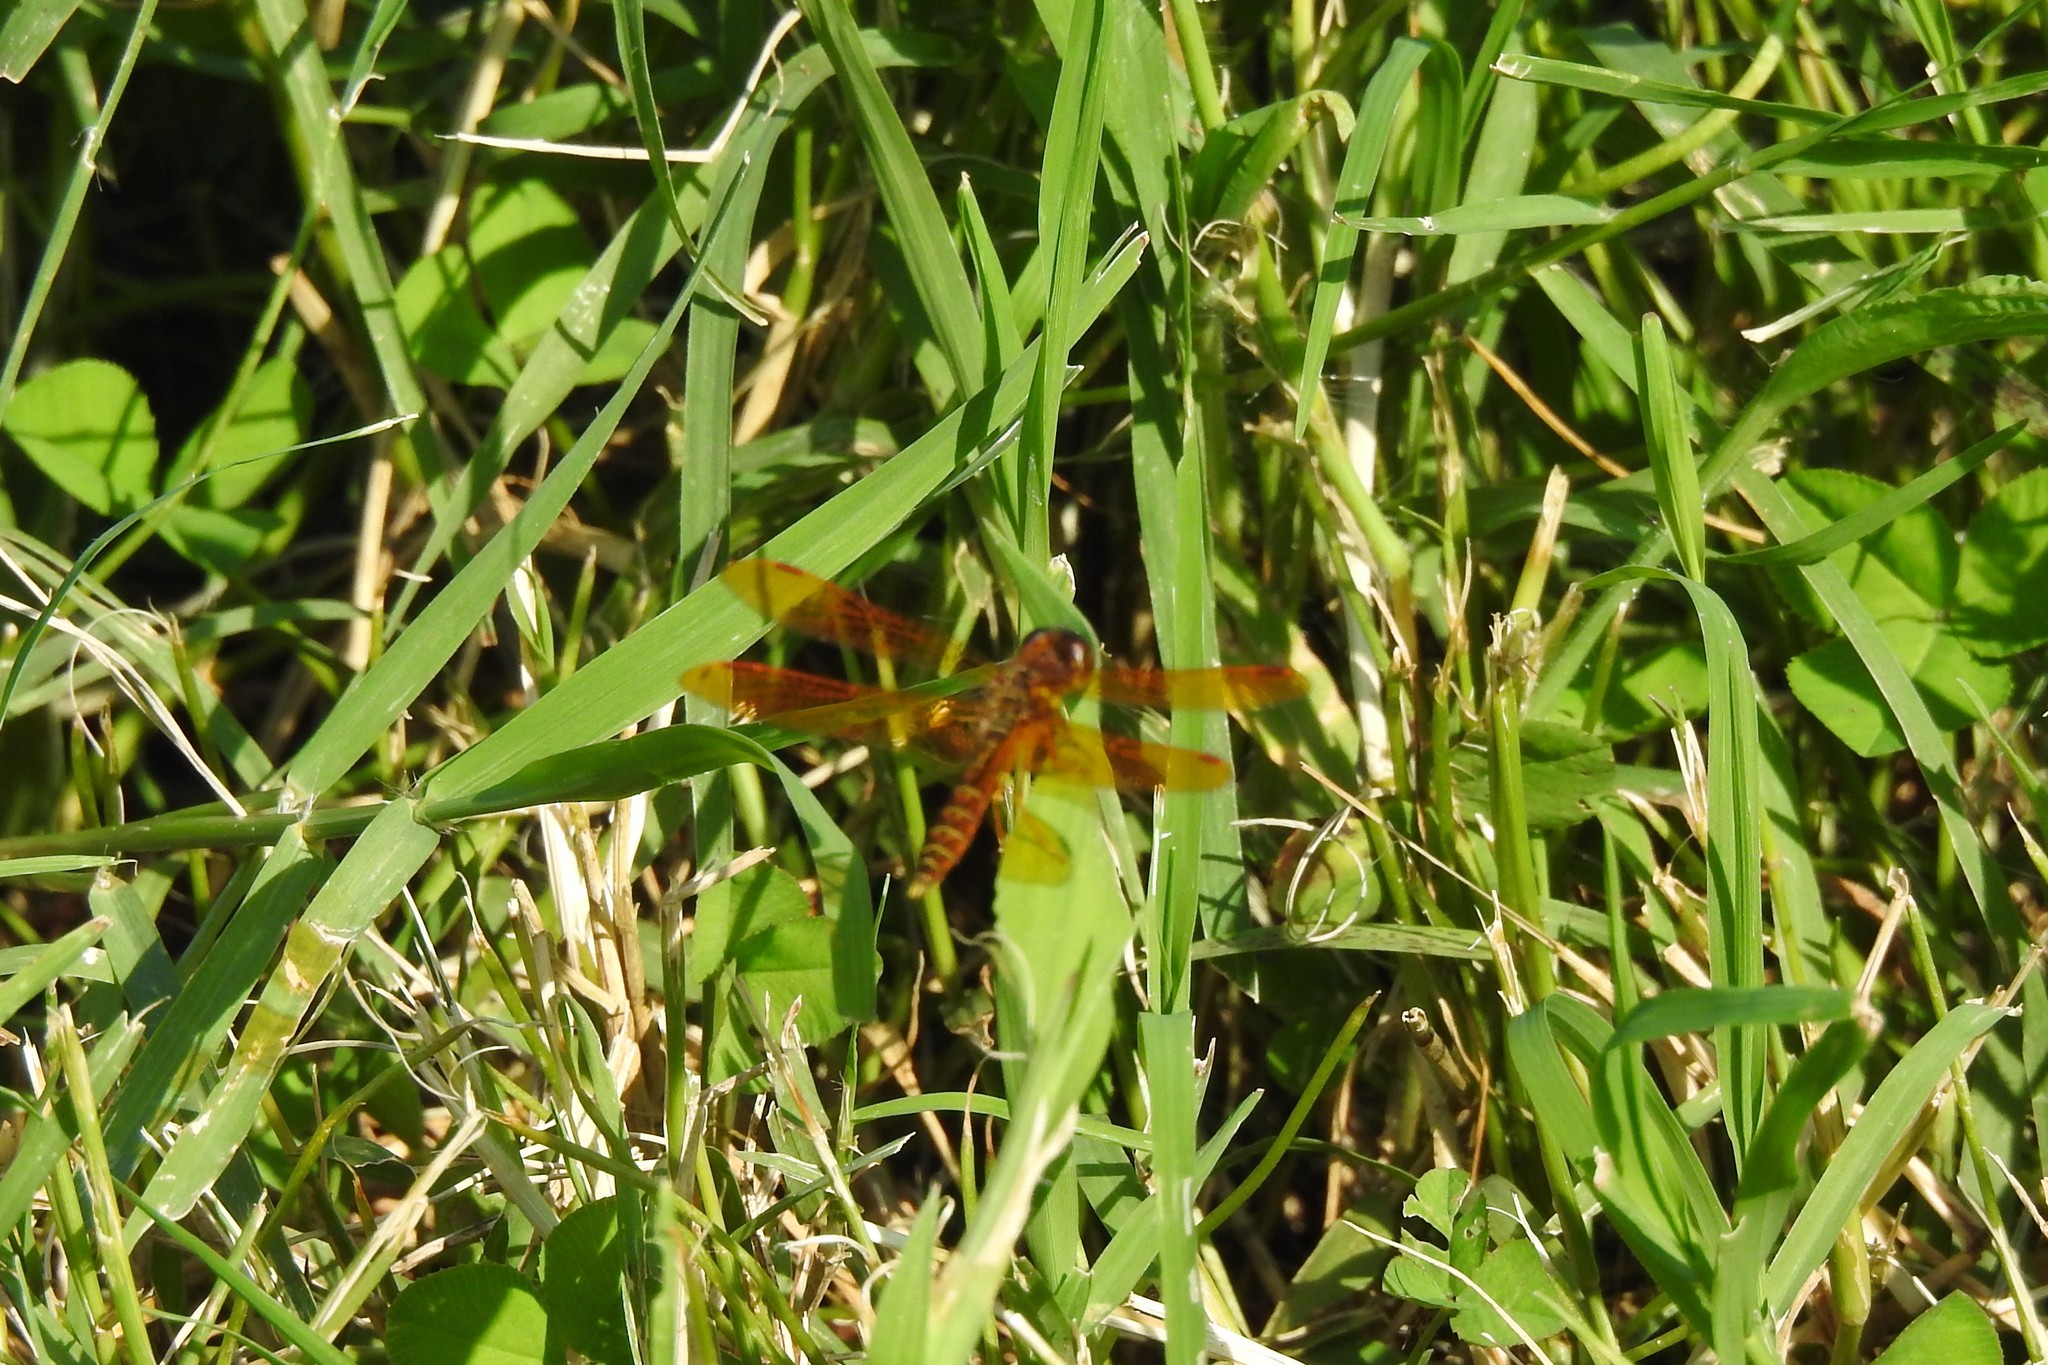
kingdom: Animalia
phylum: Arthropoda
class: Insecta
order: Odonata
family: Libellulidae
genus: Perithemis
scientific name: Perithemis tenera
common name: Eastern amberwing
